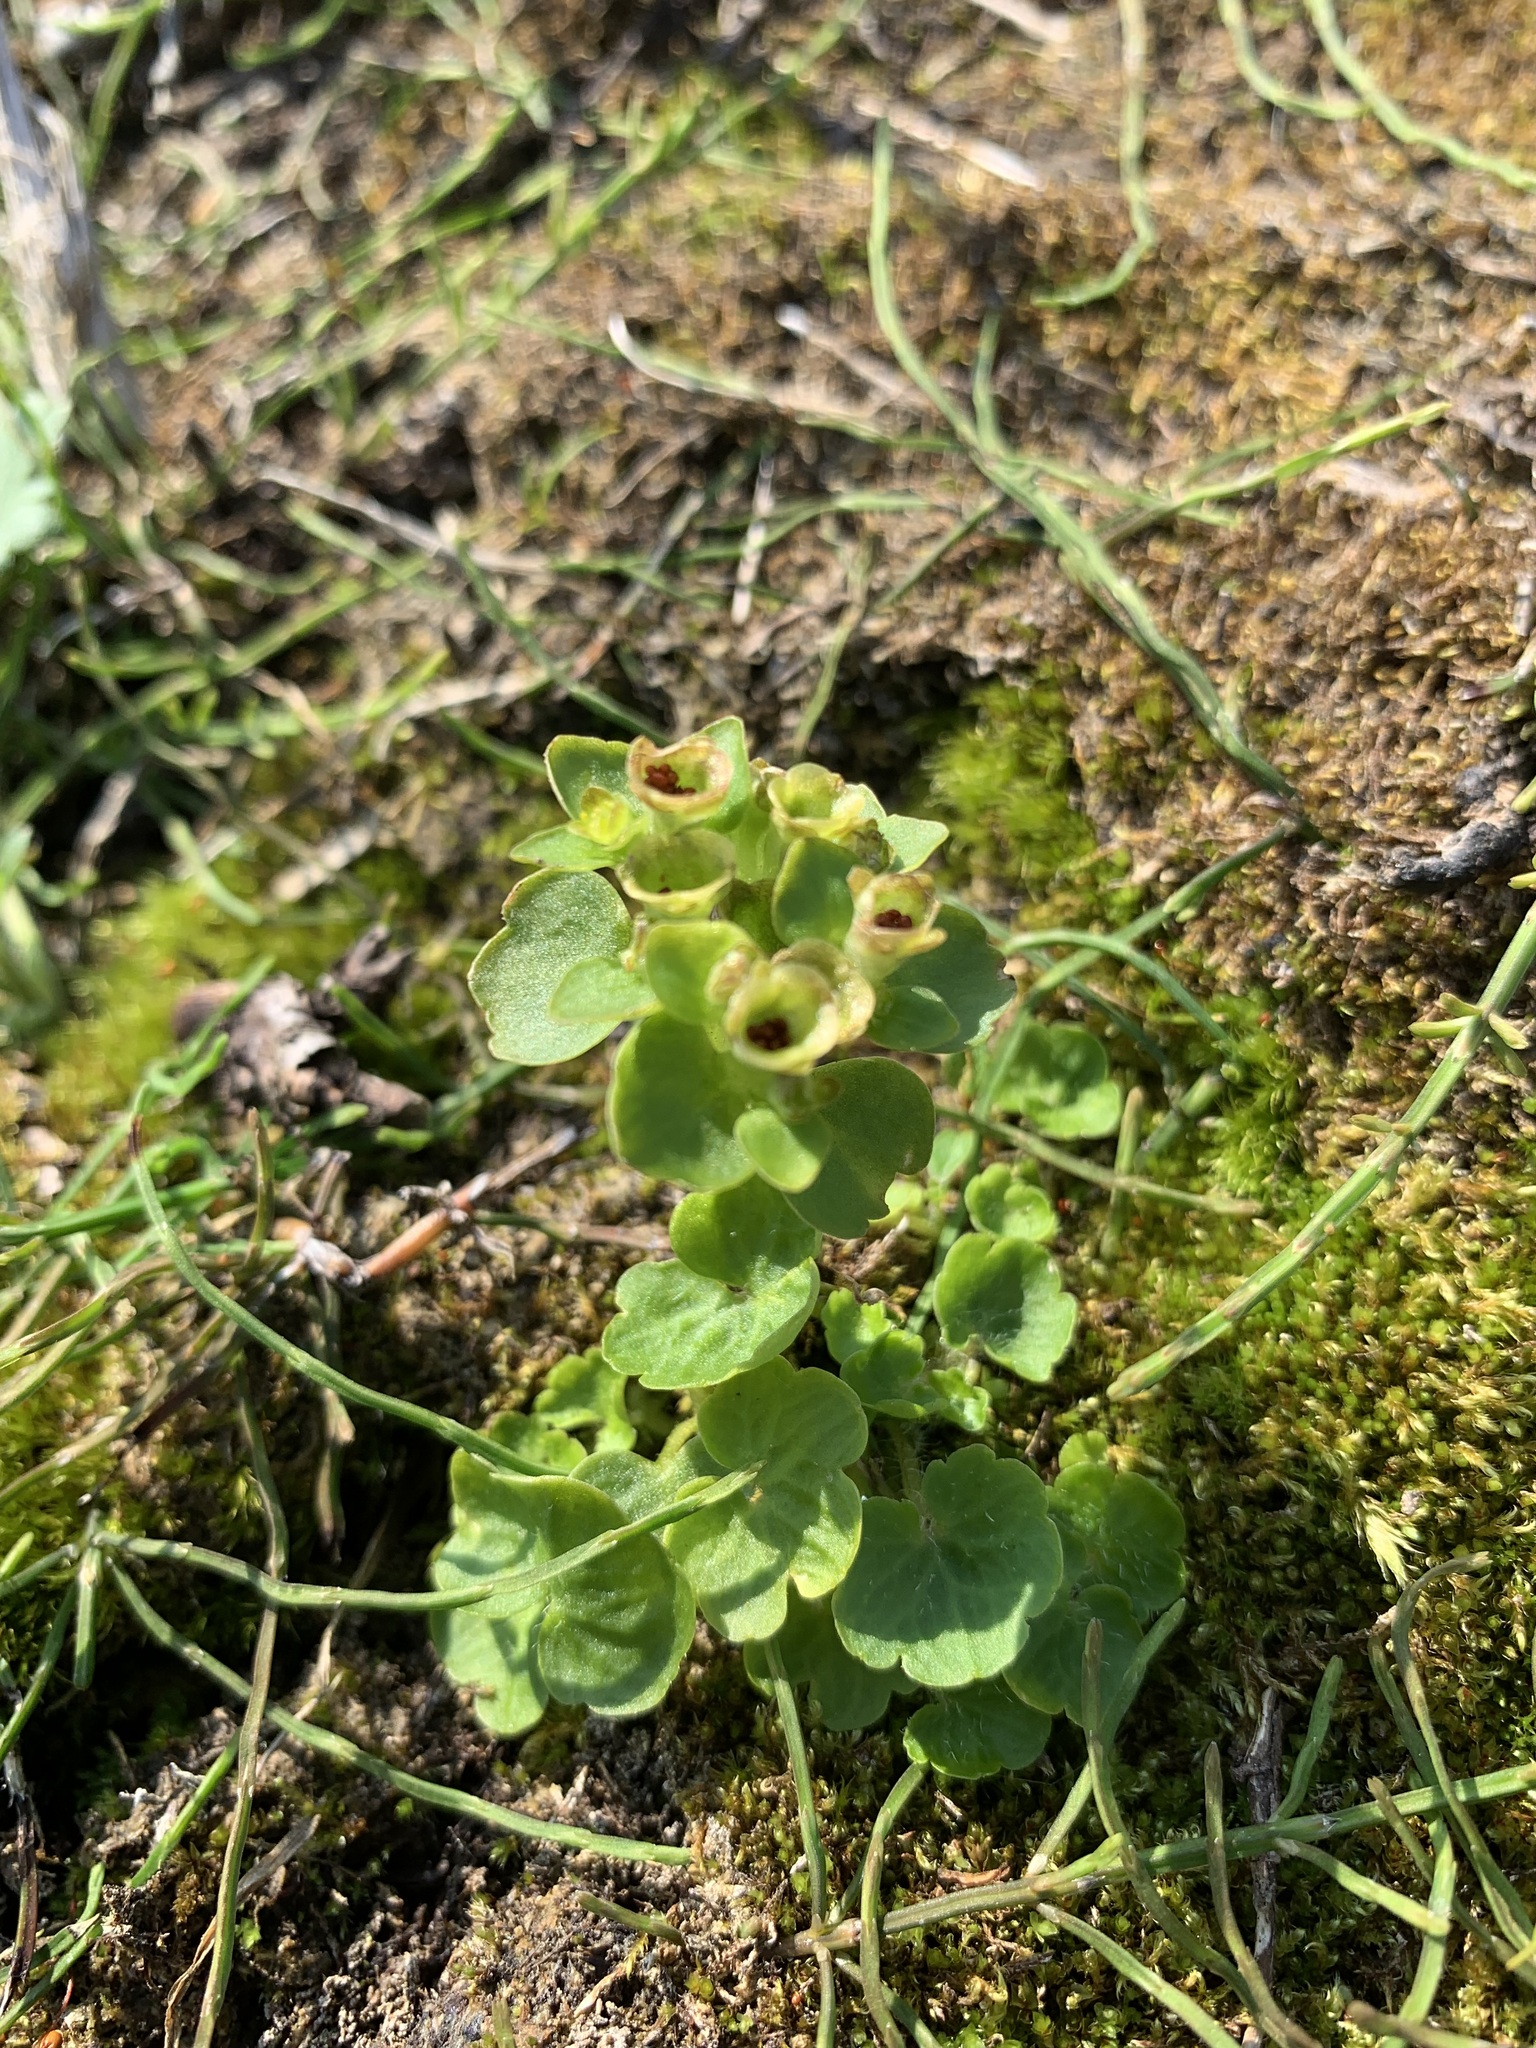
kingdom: Plantae
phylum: Tracheophyta
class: Magnoliopsida
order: Saxifragales
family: Saxifragaceae
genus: Chrysosplenium
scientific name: Chrysosplenium tetrandrum
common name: Green saxifrage
